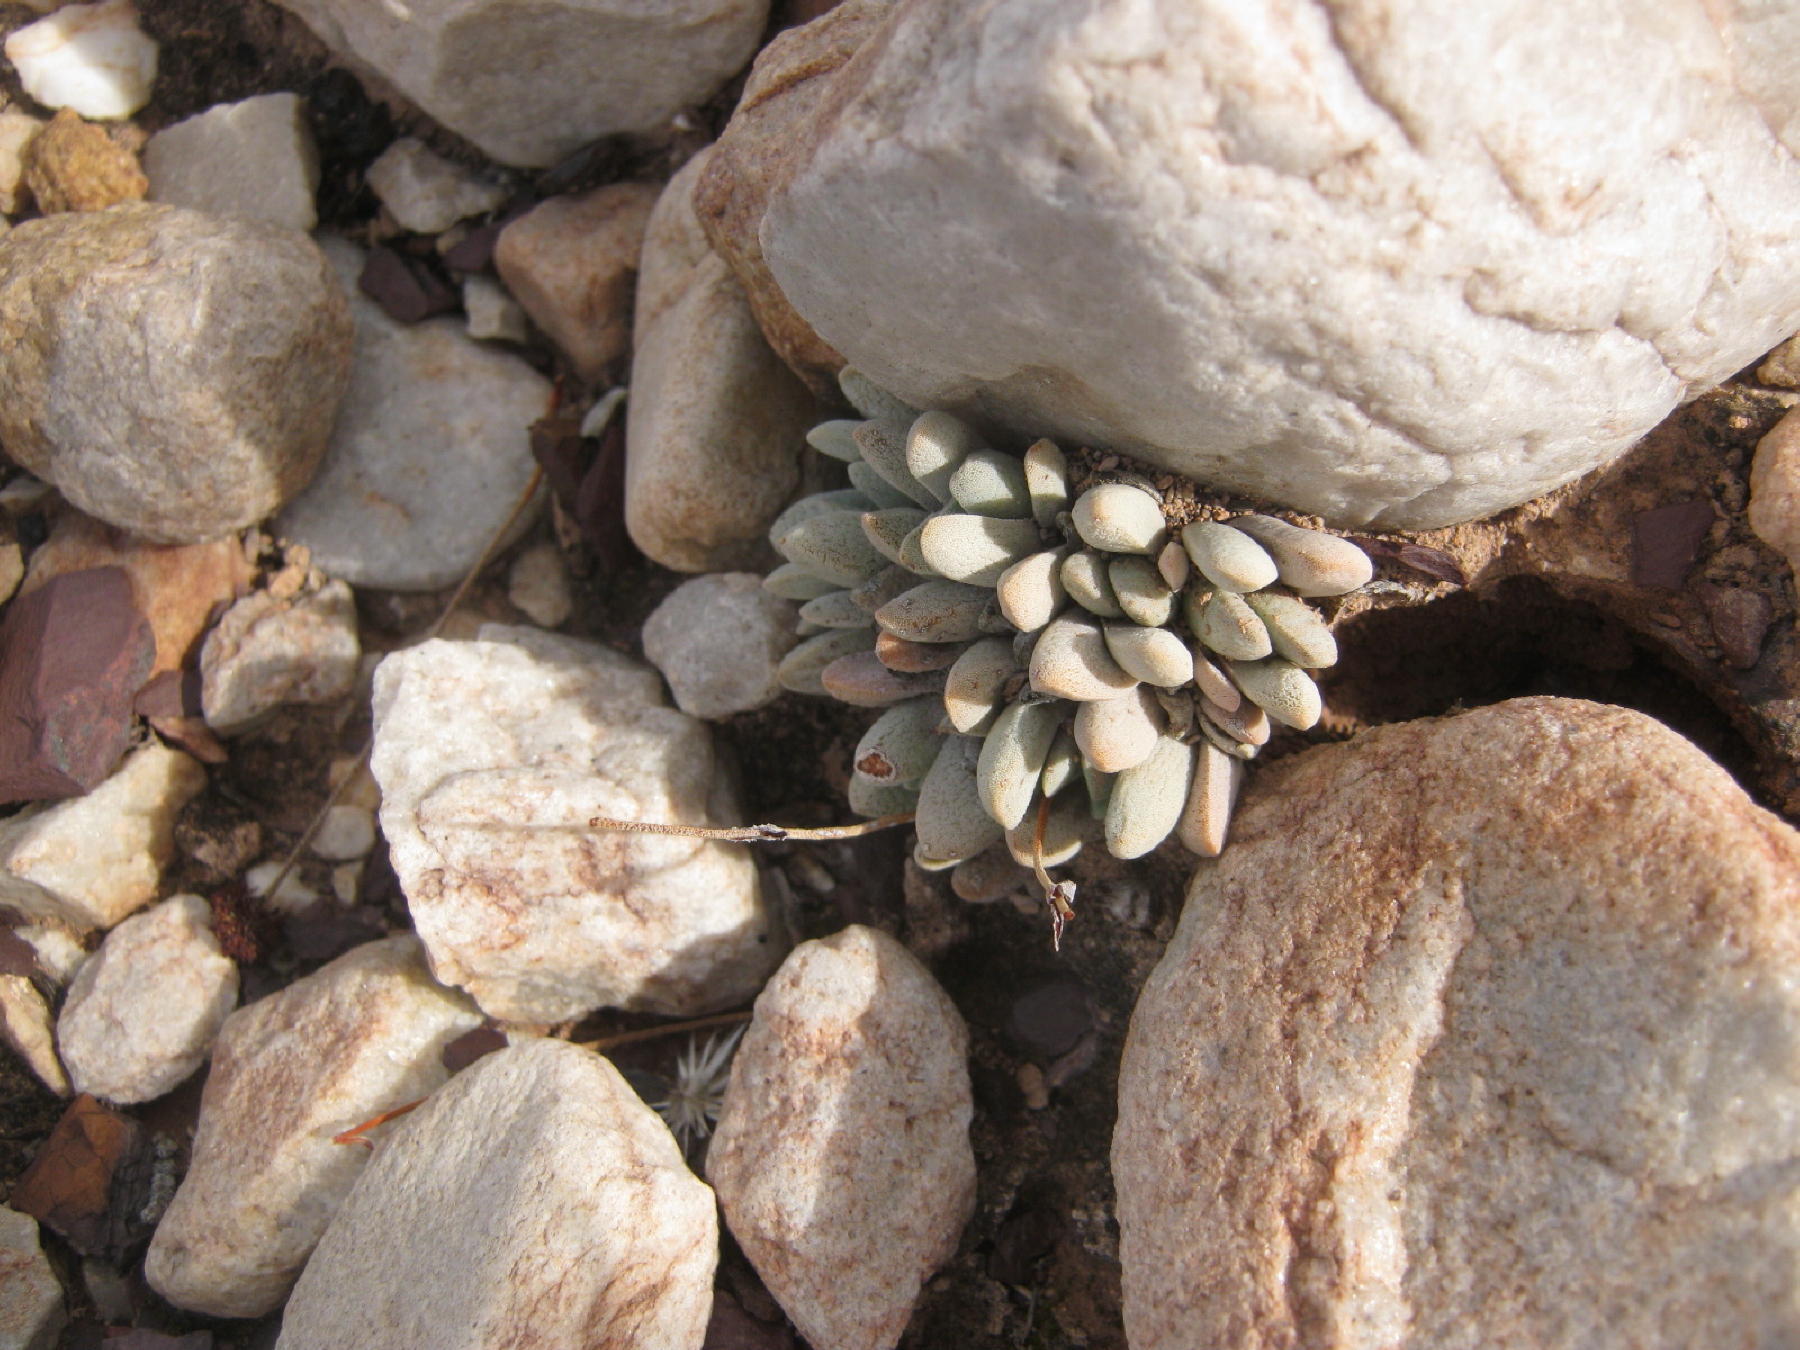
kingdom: Plantae
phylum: Tracheophyta
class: Magnoliopsida
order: Saxifragales
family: Crassulaceae
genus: Crassula
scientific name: Crassula tecta
